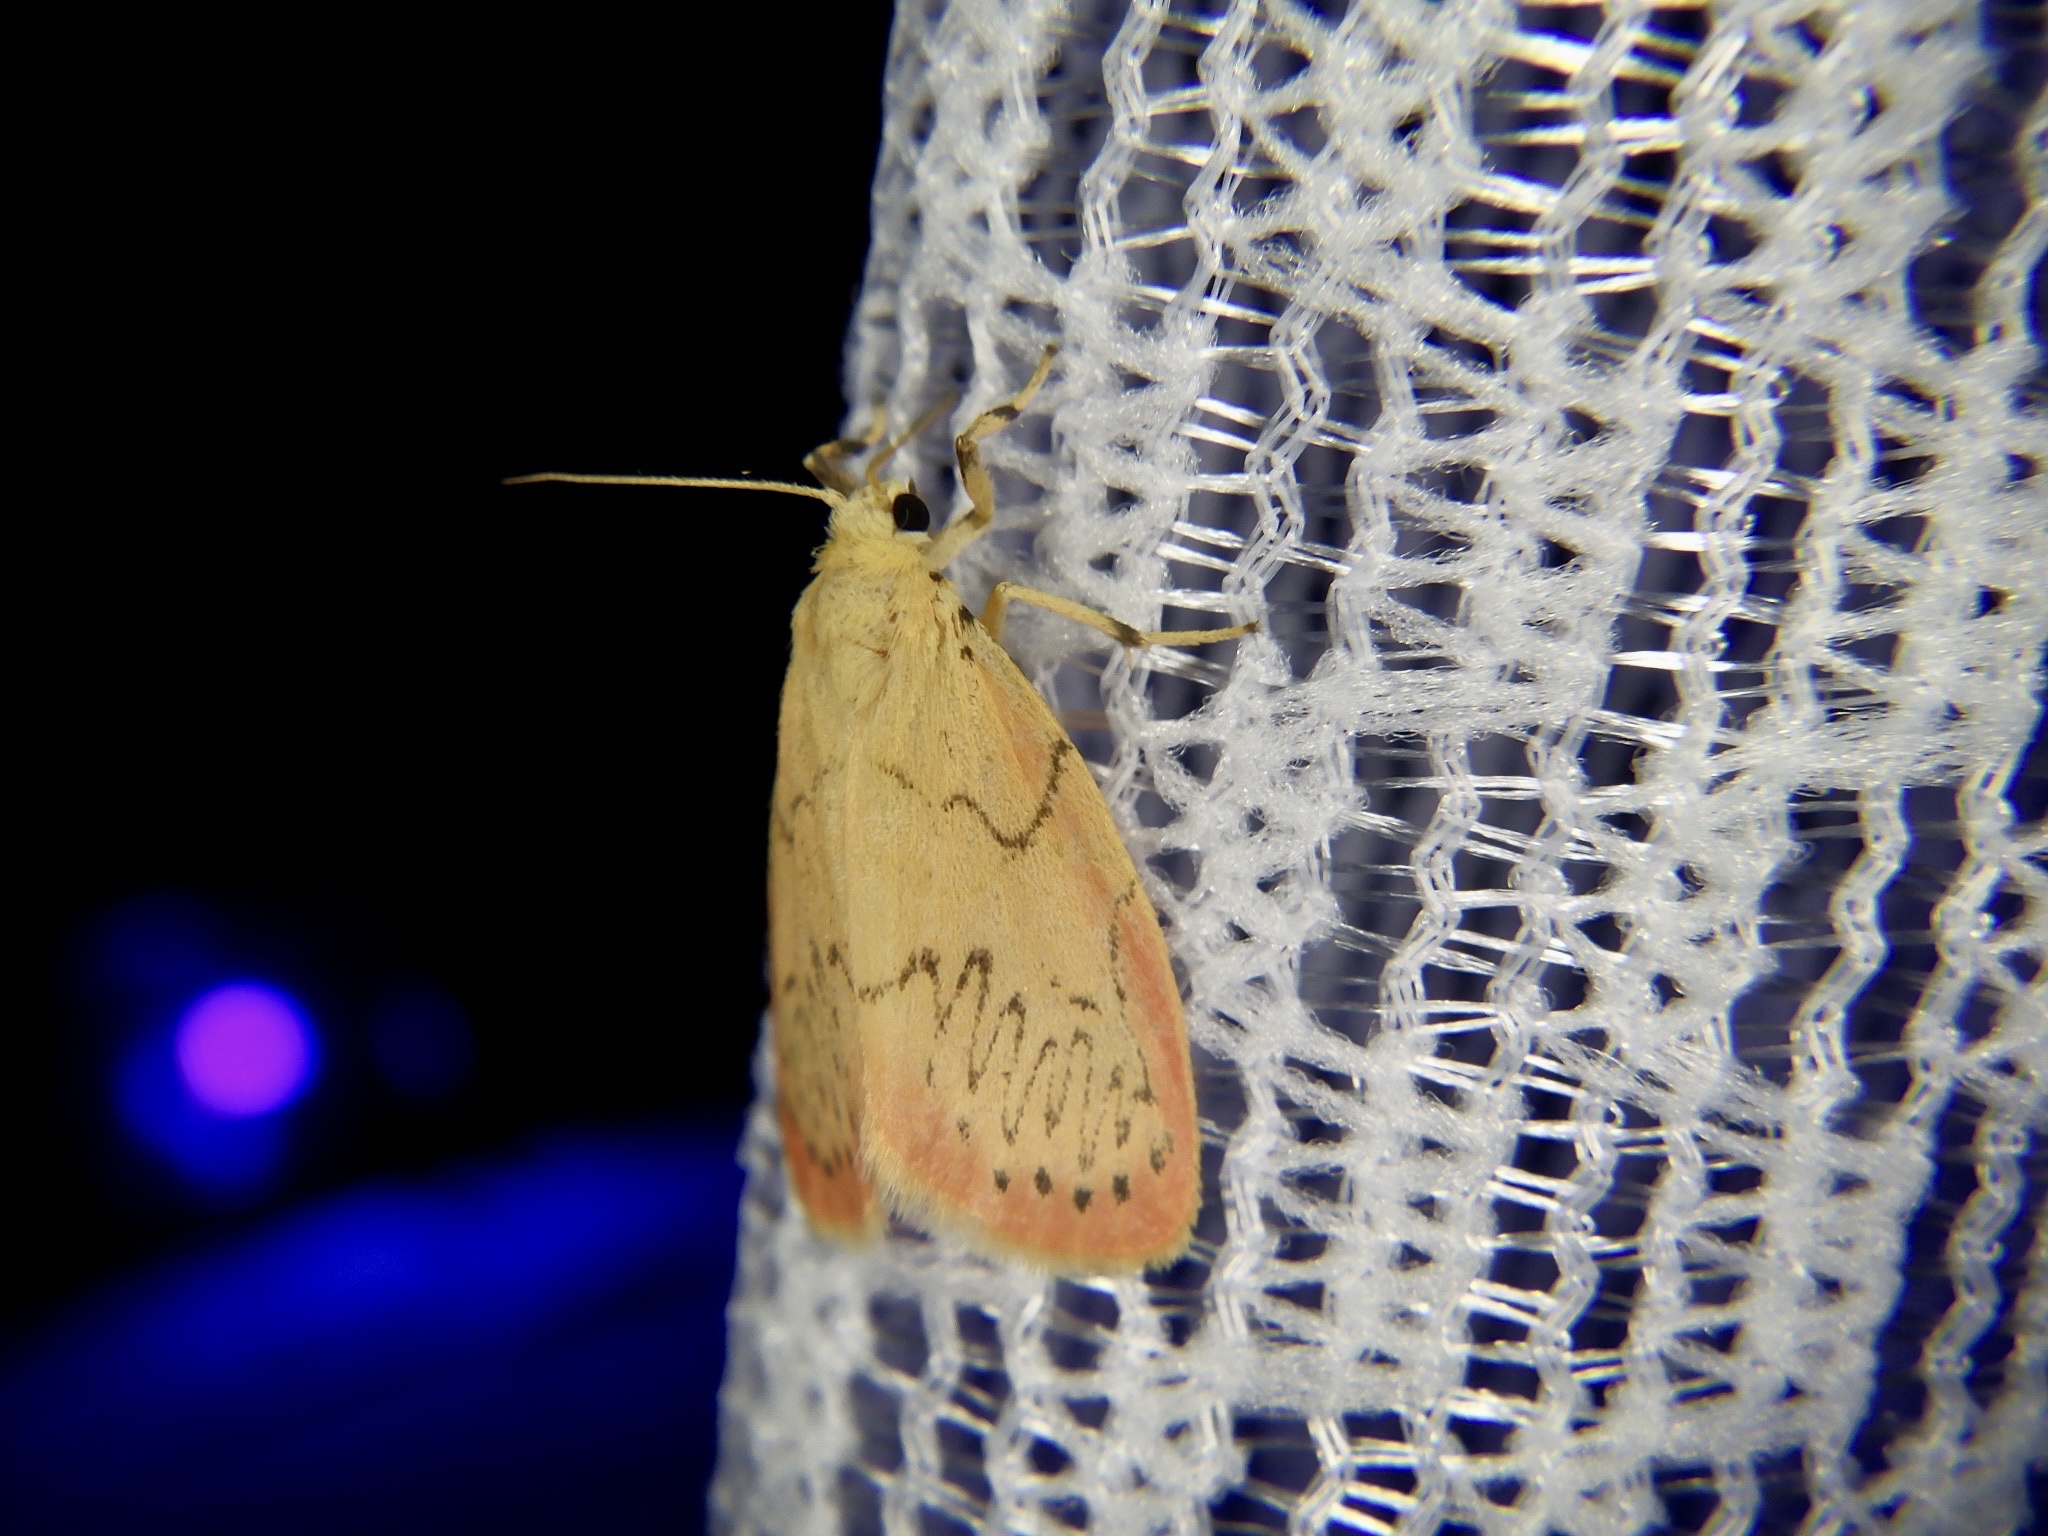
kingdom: Animalia
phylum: Arthropoda
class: Insecta
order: Lepidoptera
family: Erebidae
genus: Miltochrista
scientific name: Miltochrista miniata
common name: Rosy footman
